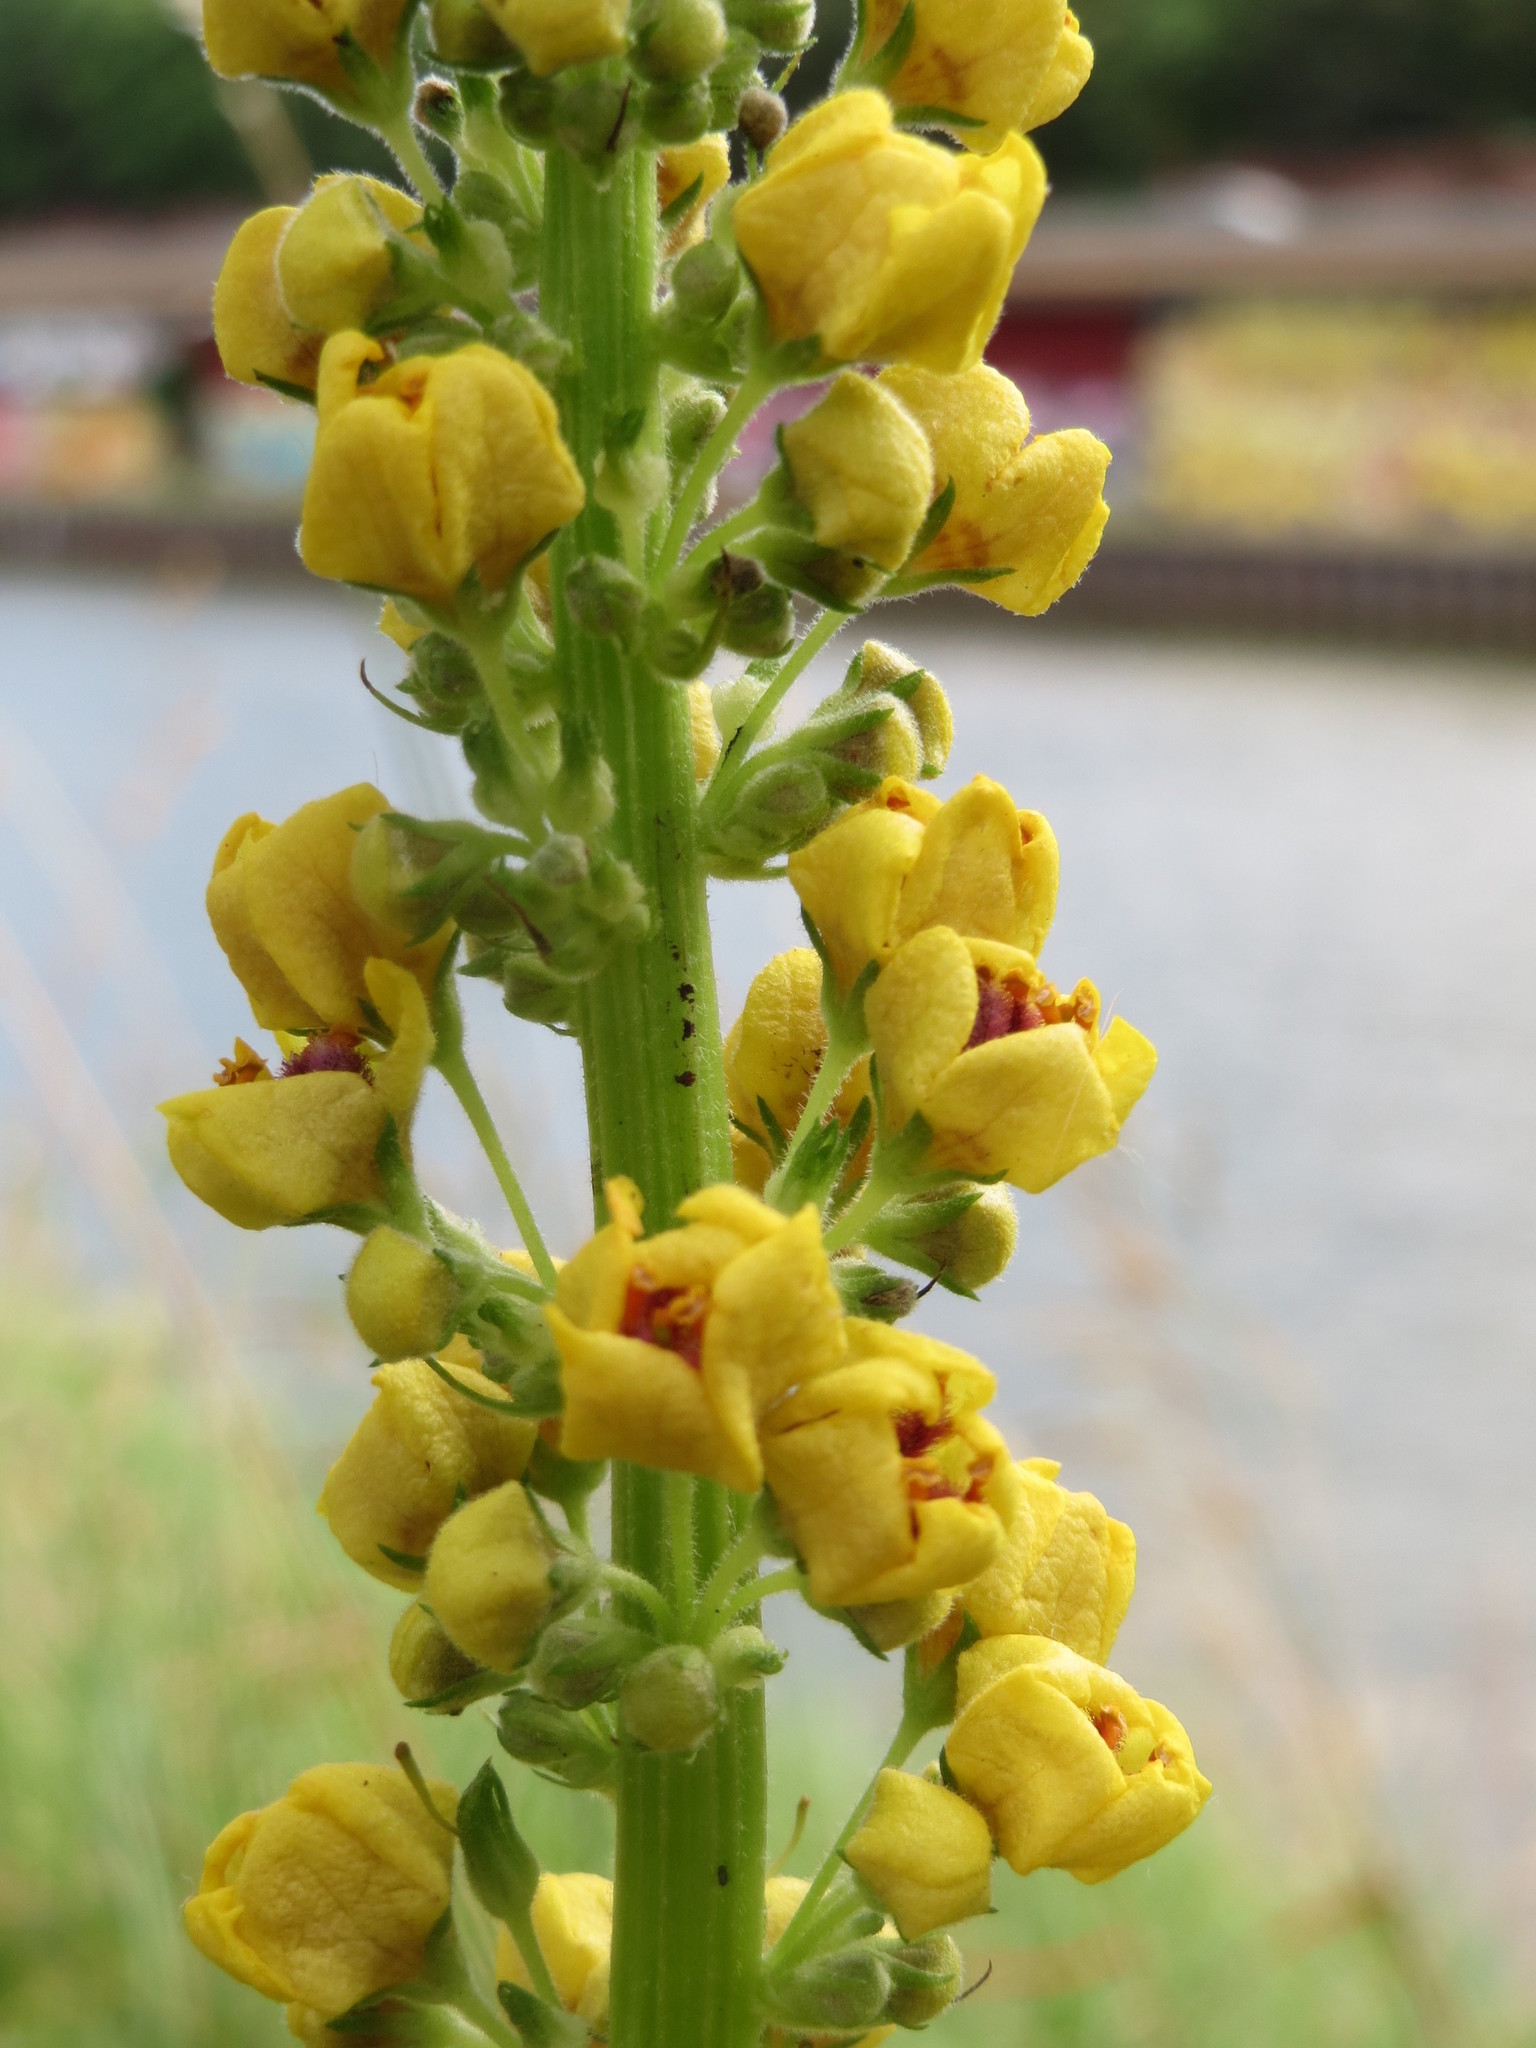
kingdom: Plantae
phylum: Tracheophyta
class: Magnoliopsida
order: Lamiales
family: Scrophulariaceae
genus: Verbascum
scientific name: Verbascum nigrum
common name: Dark mullein
